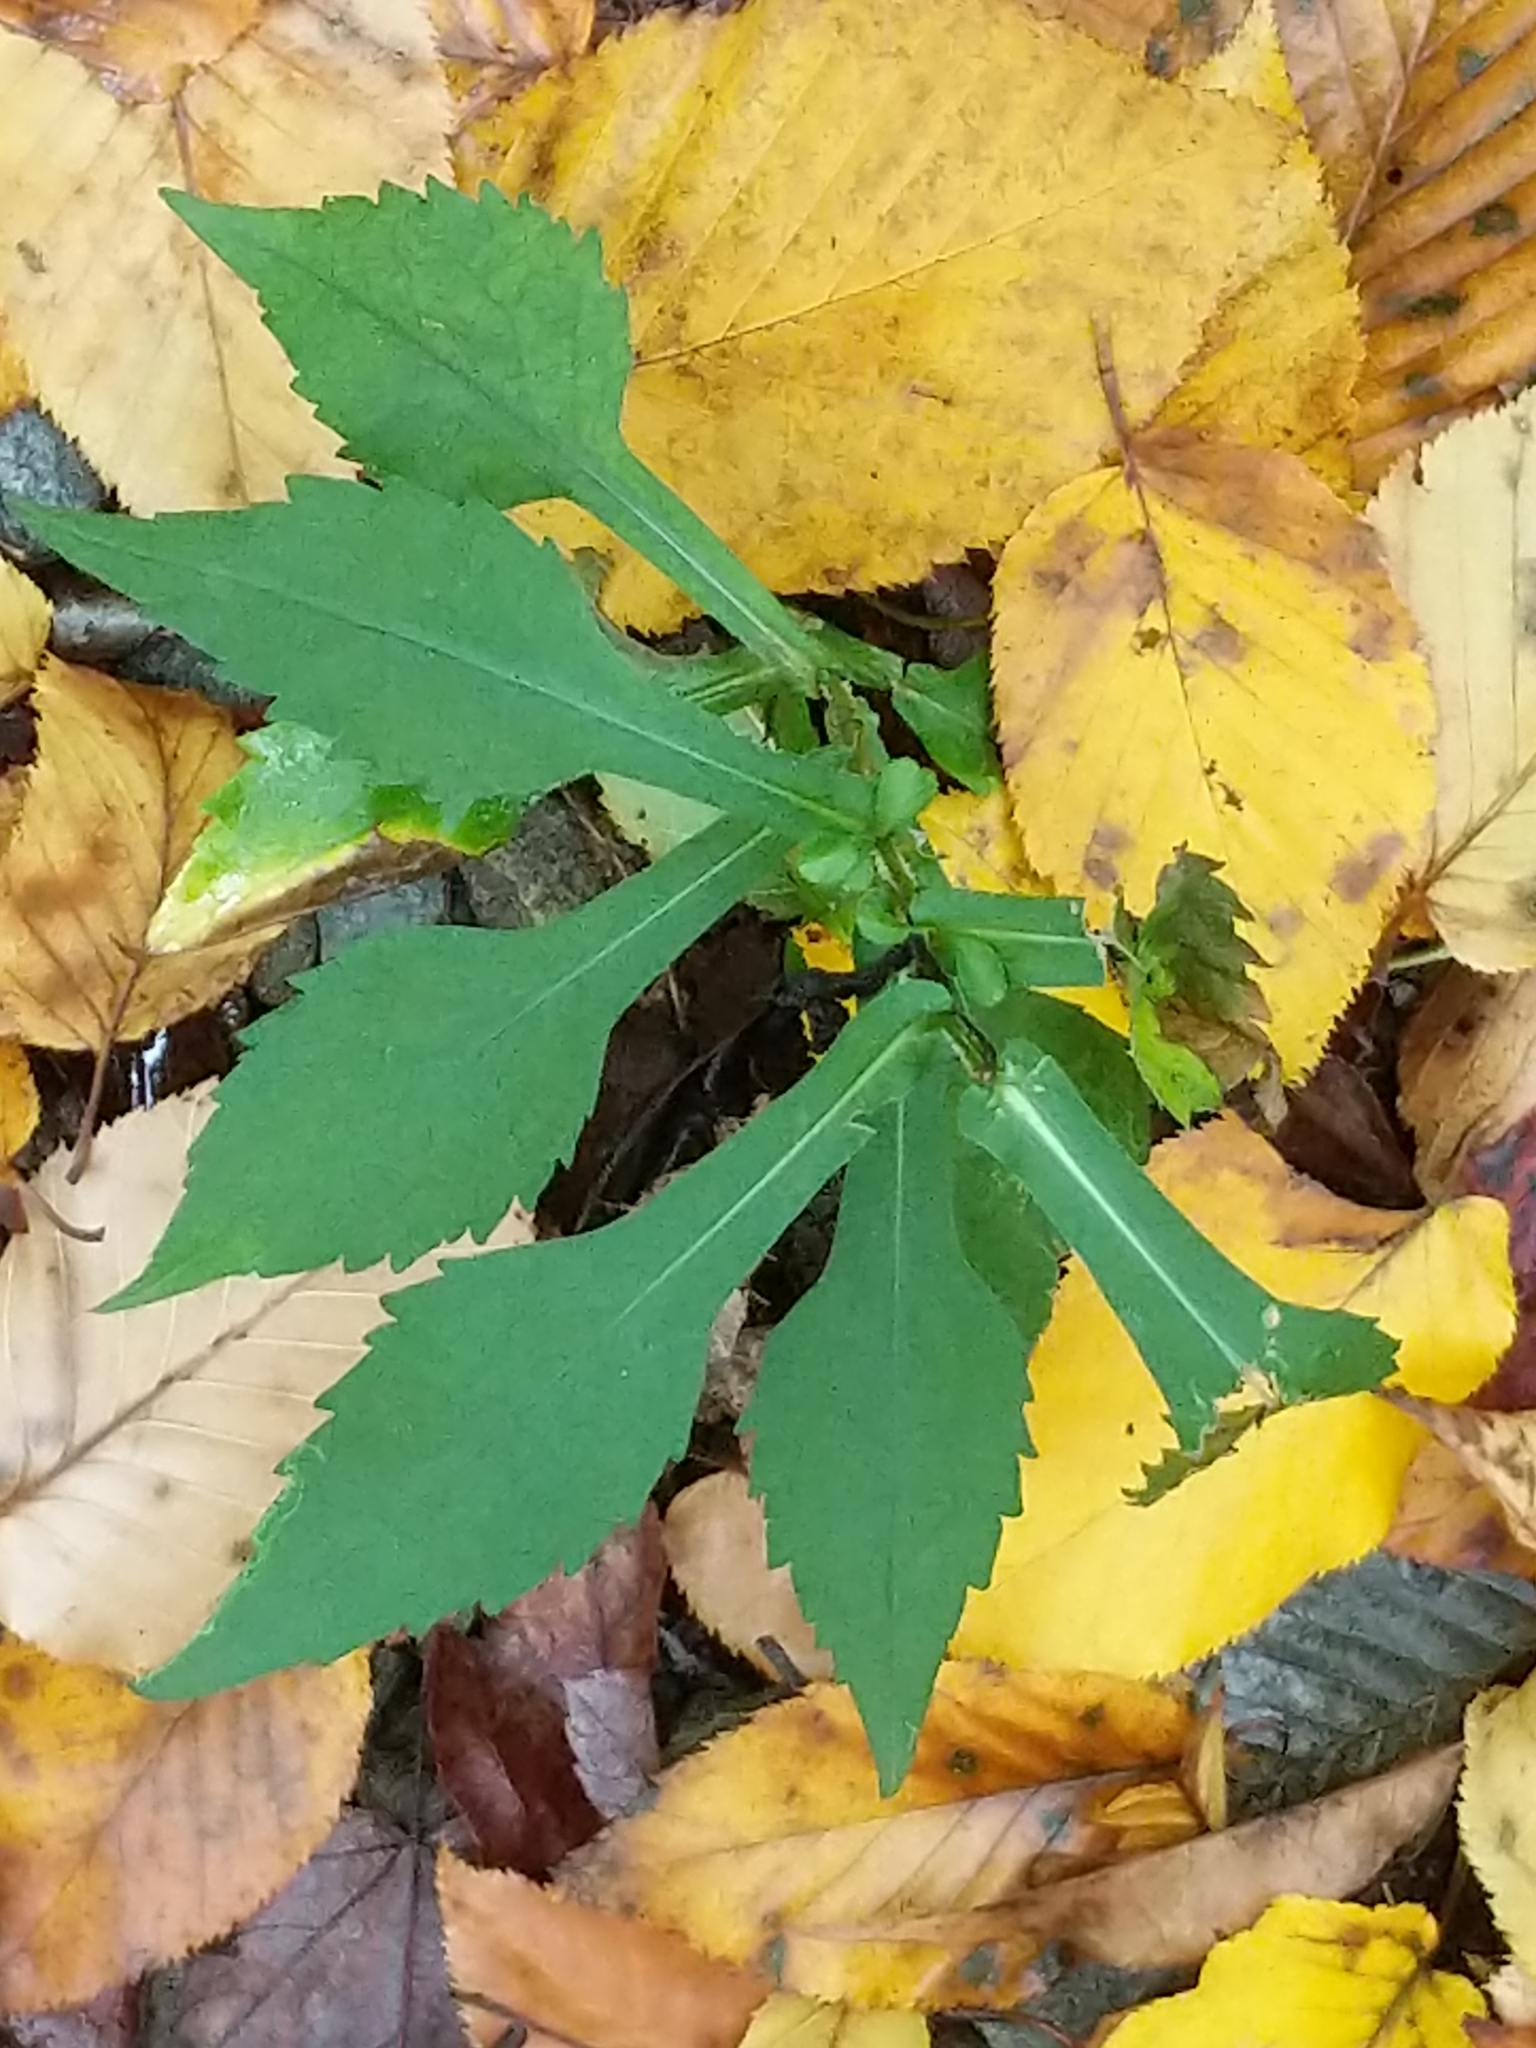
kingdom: Plantae
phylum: Tracheophyta
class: Magnoliopsida
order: Asterales
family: Asteraceae
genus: Symphyotrichum
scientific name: Symphyotrichum prenanthoides
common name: Crooked-stem aster
